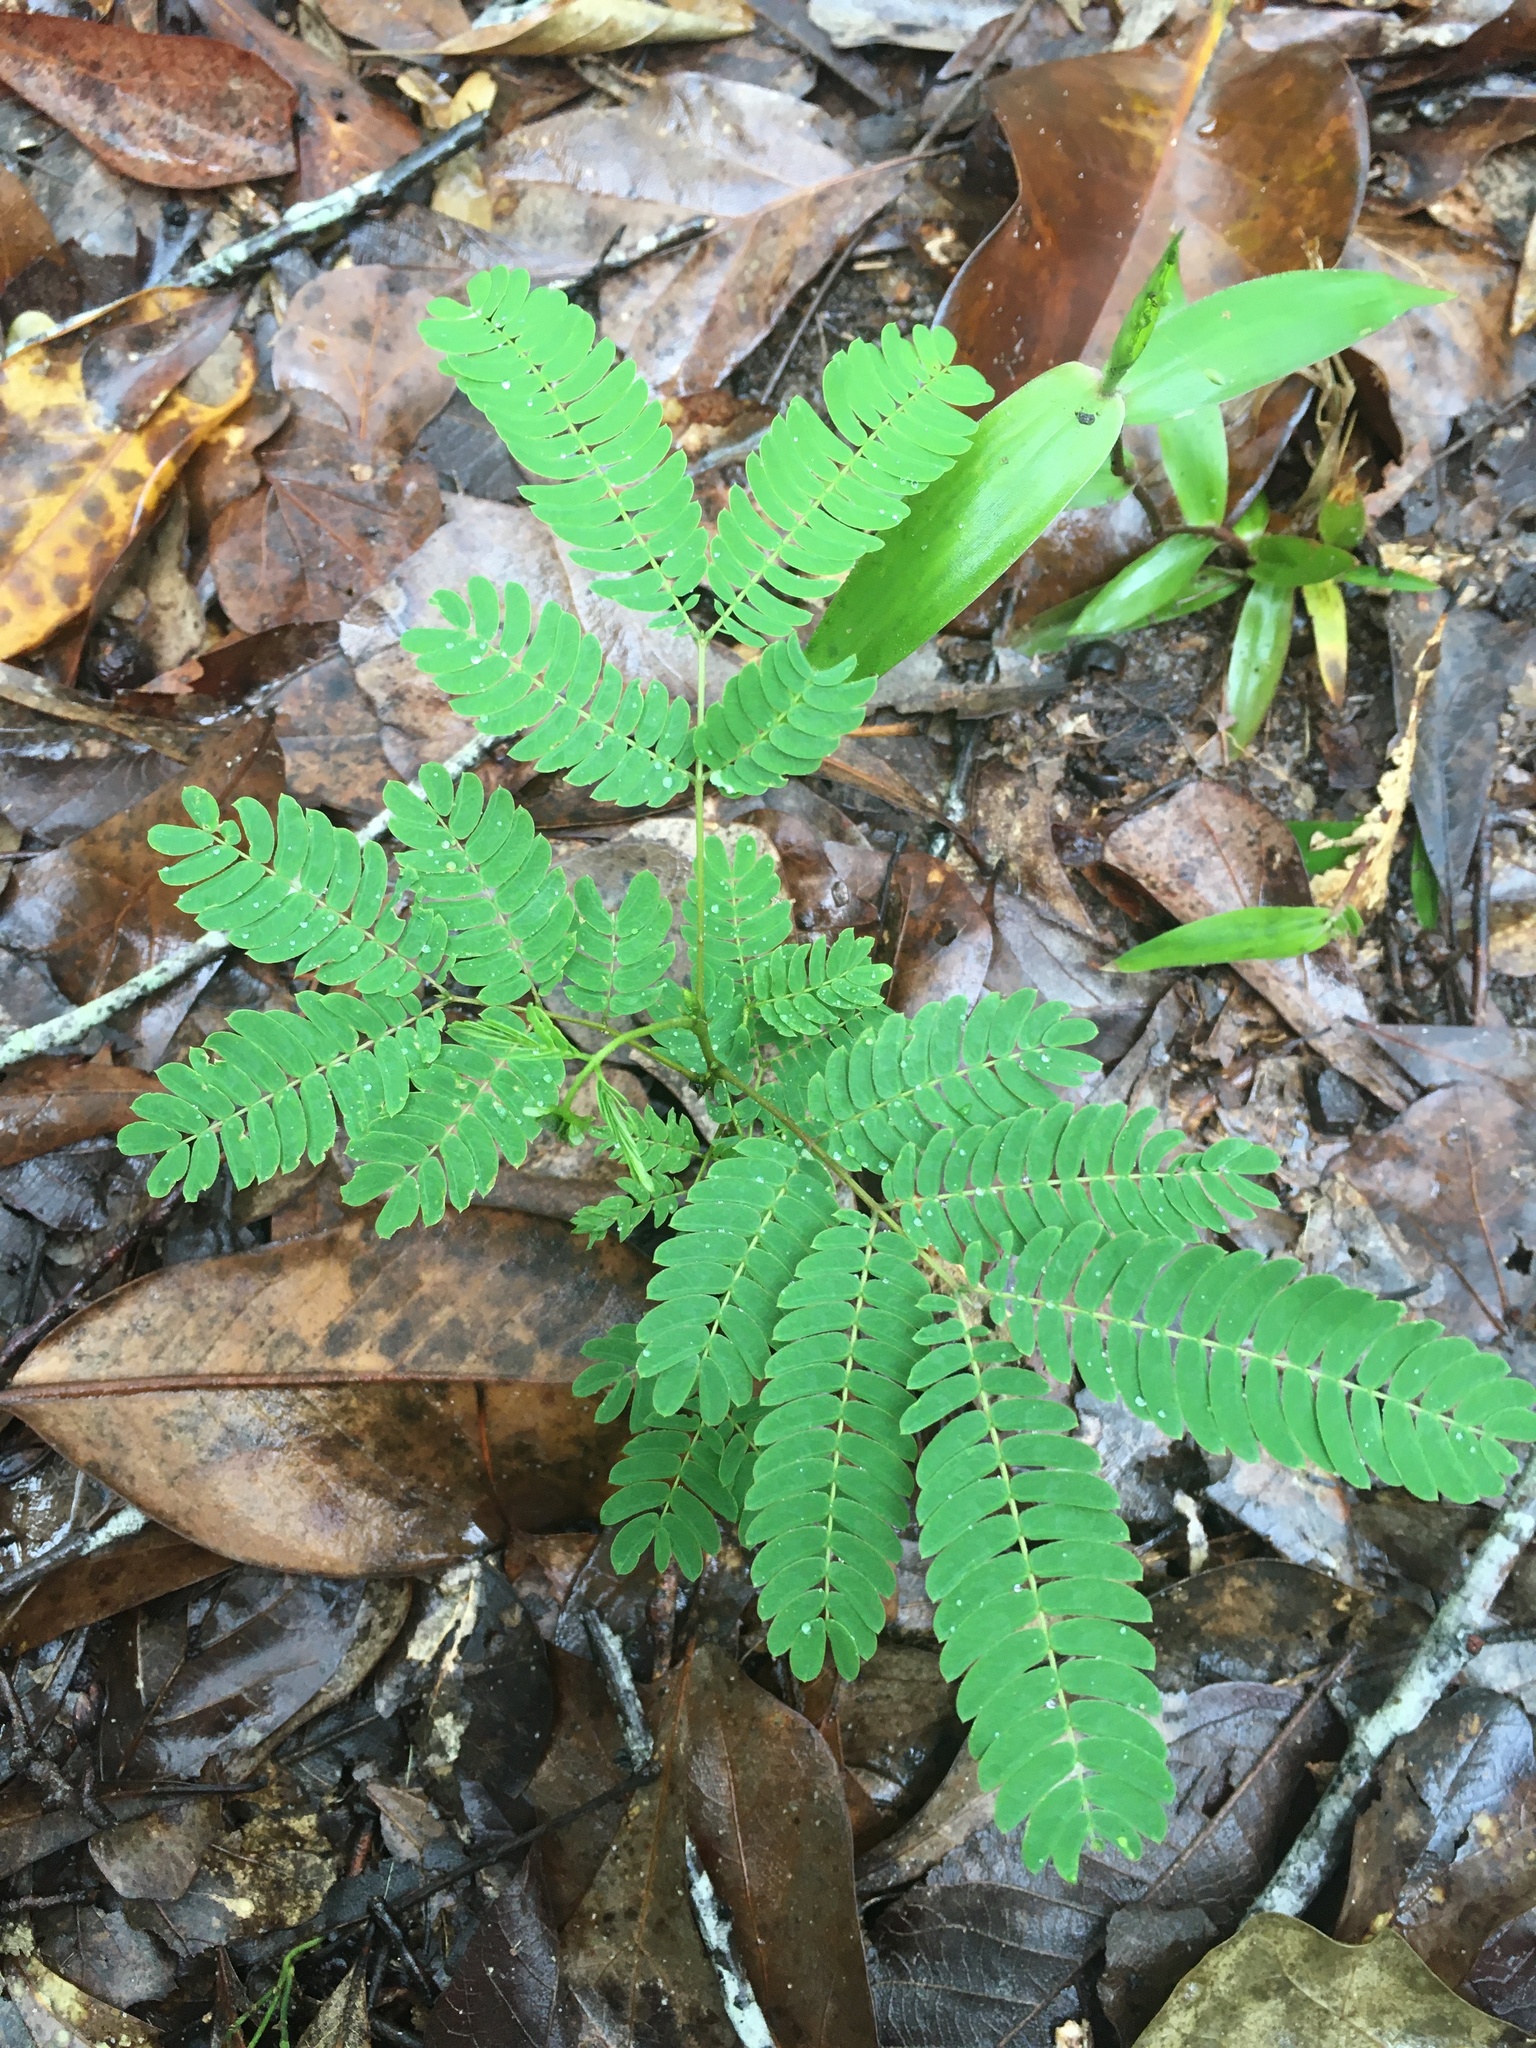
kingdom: Plantae
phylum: Tracheophyta
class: Magnoliopsida
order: Fabales
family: Fabaceae
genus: Albizia
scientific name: Albizia julibrissin
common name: Silktree
